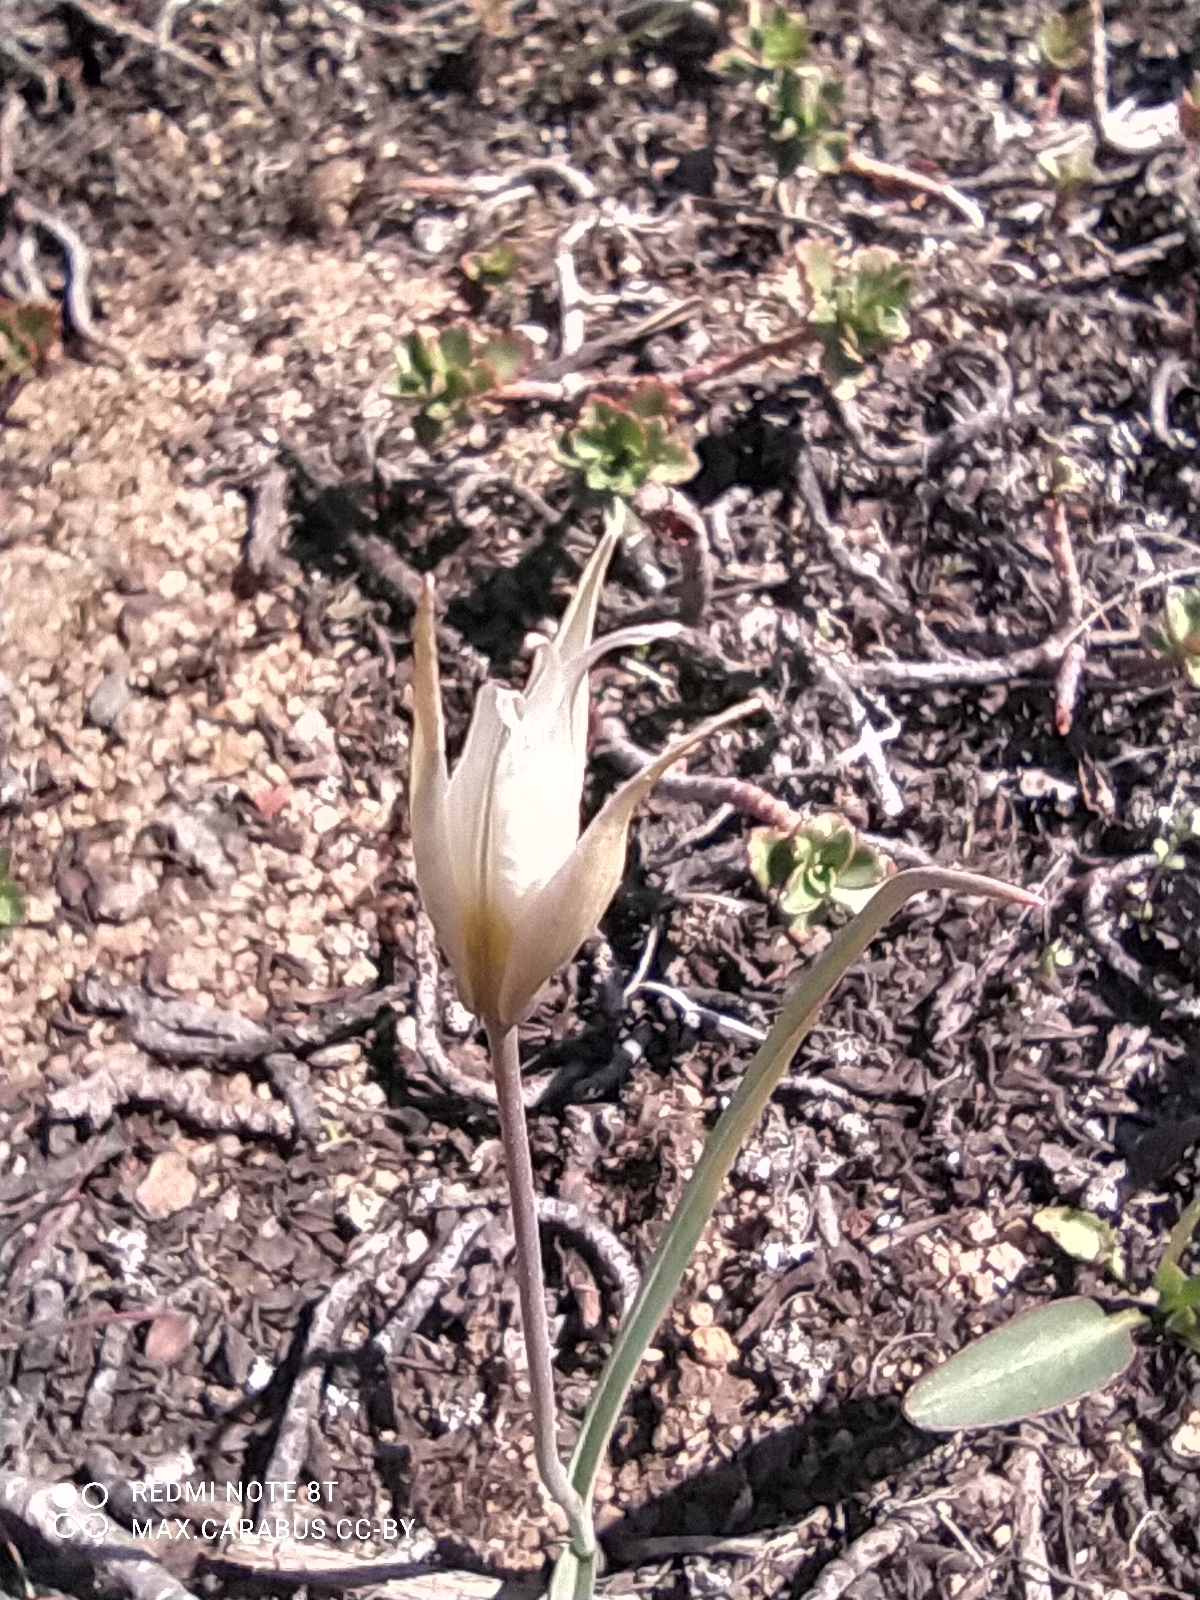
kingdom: Plantae
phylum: Tracheophyta
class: Liliopsida
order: Liliales
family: Liliaceae
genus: Tulipa
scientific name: Tulipa patens
